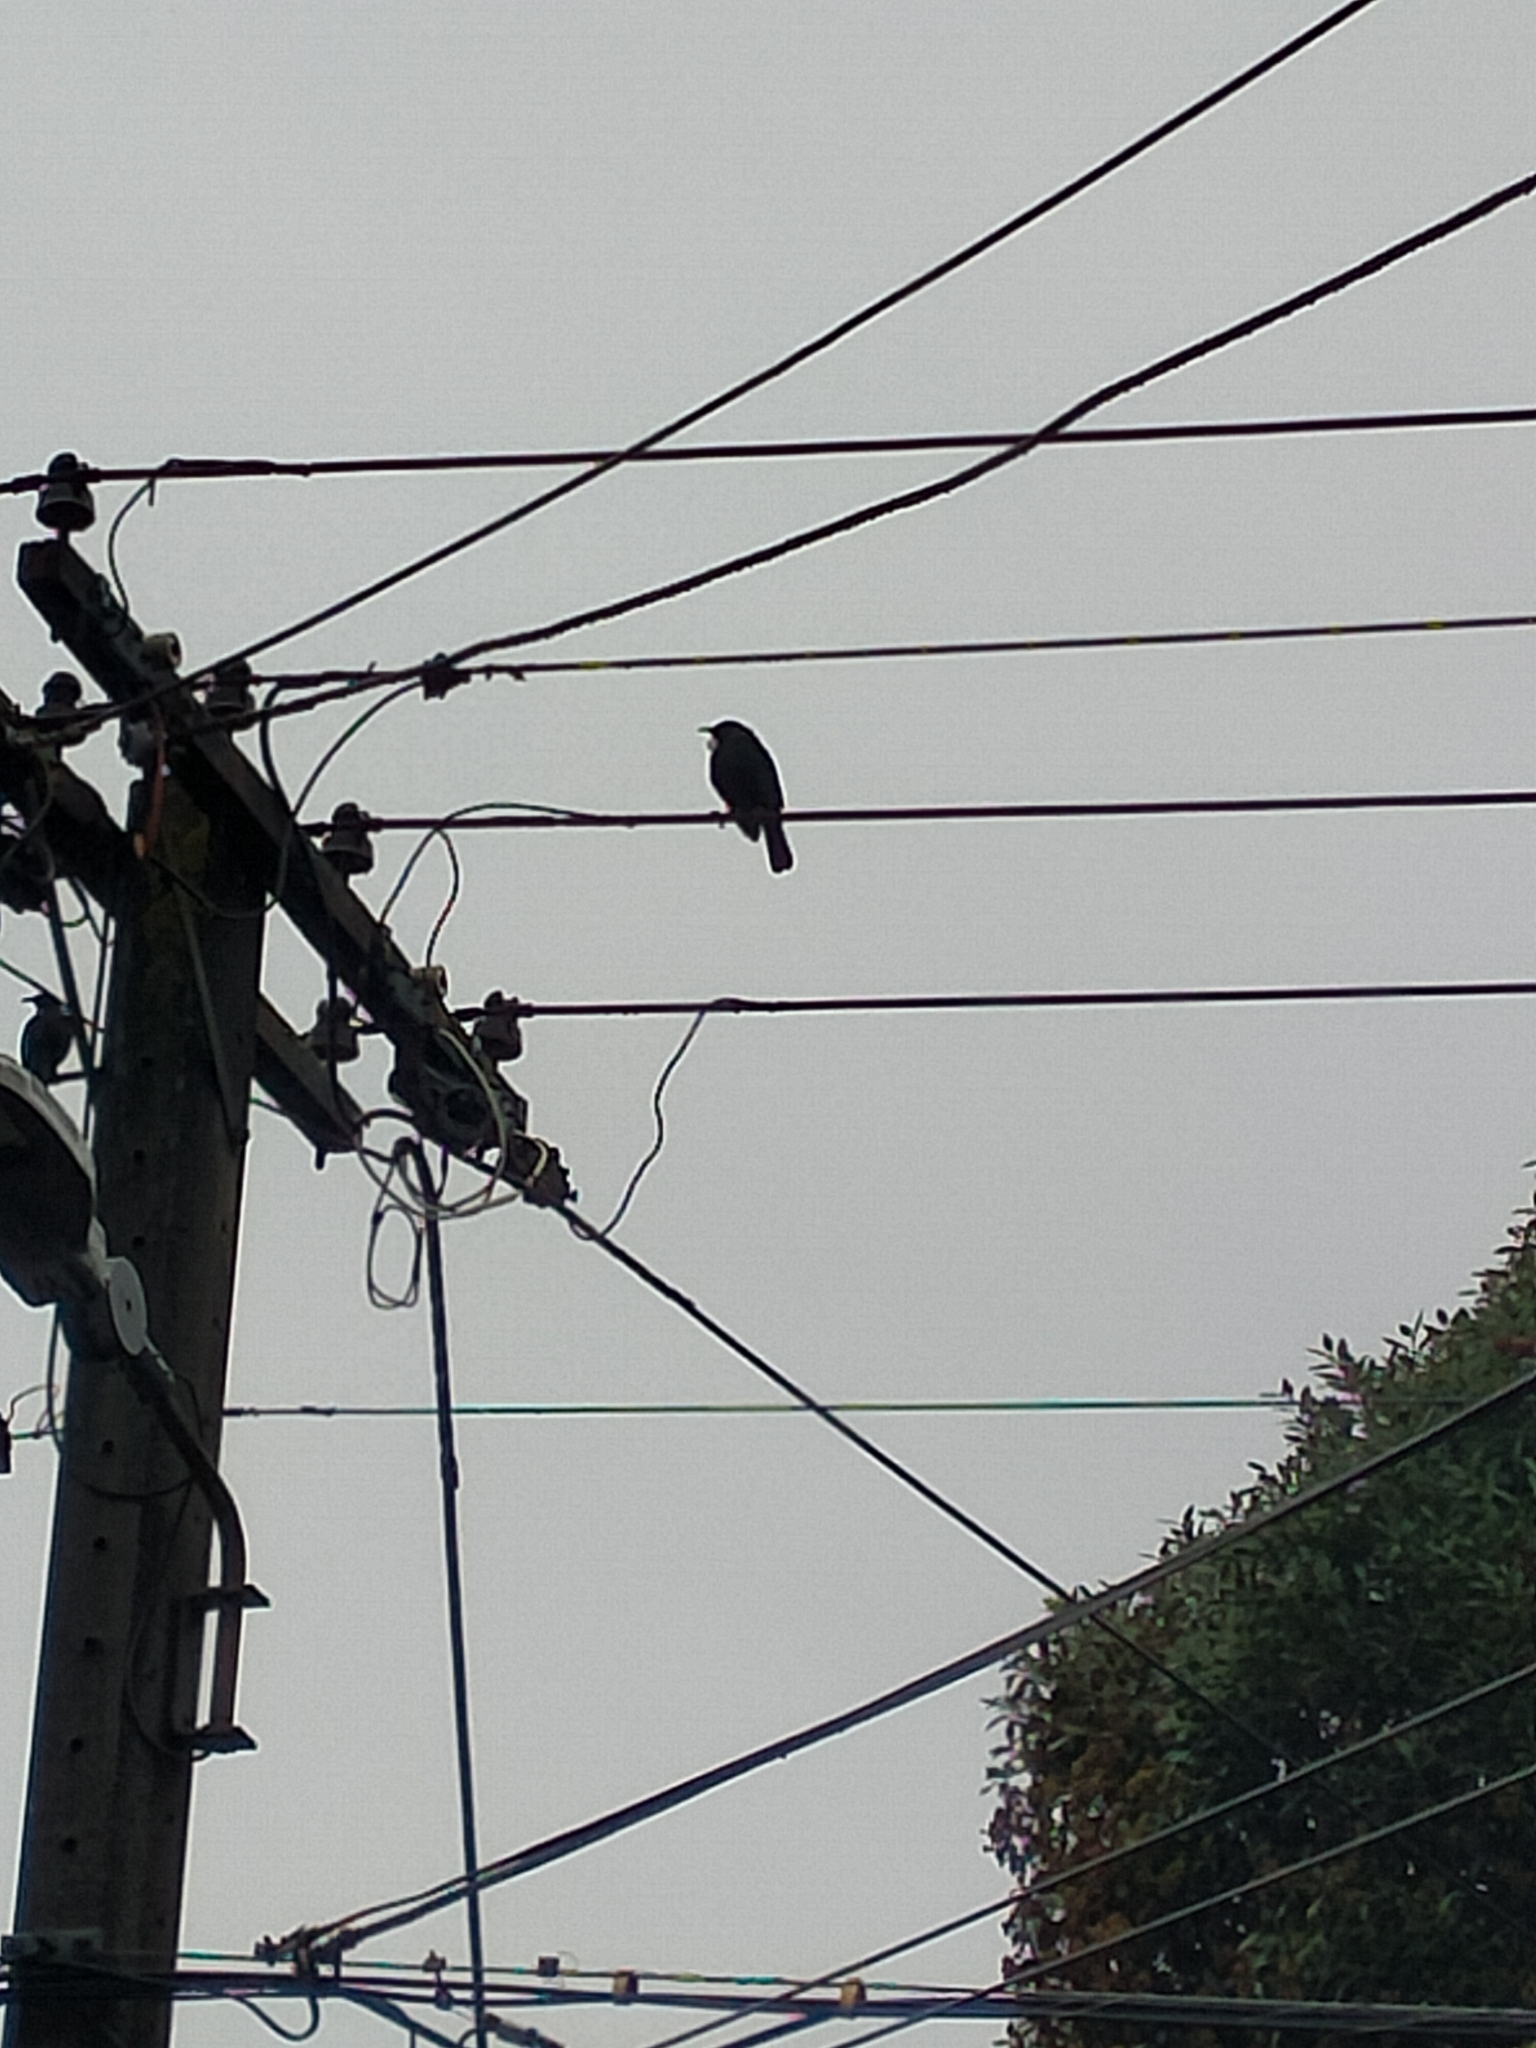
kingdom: Animalia
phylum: Chordata
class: Aves
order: Passeriformes
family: Meliphagidae
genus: Prosthemadera
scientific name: Prosthemadera novaeseelandiae
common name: Tui
